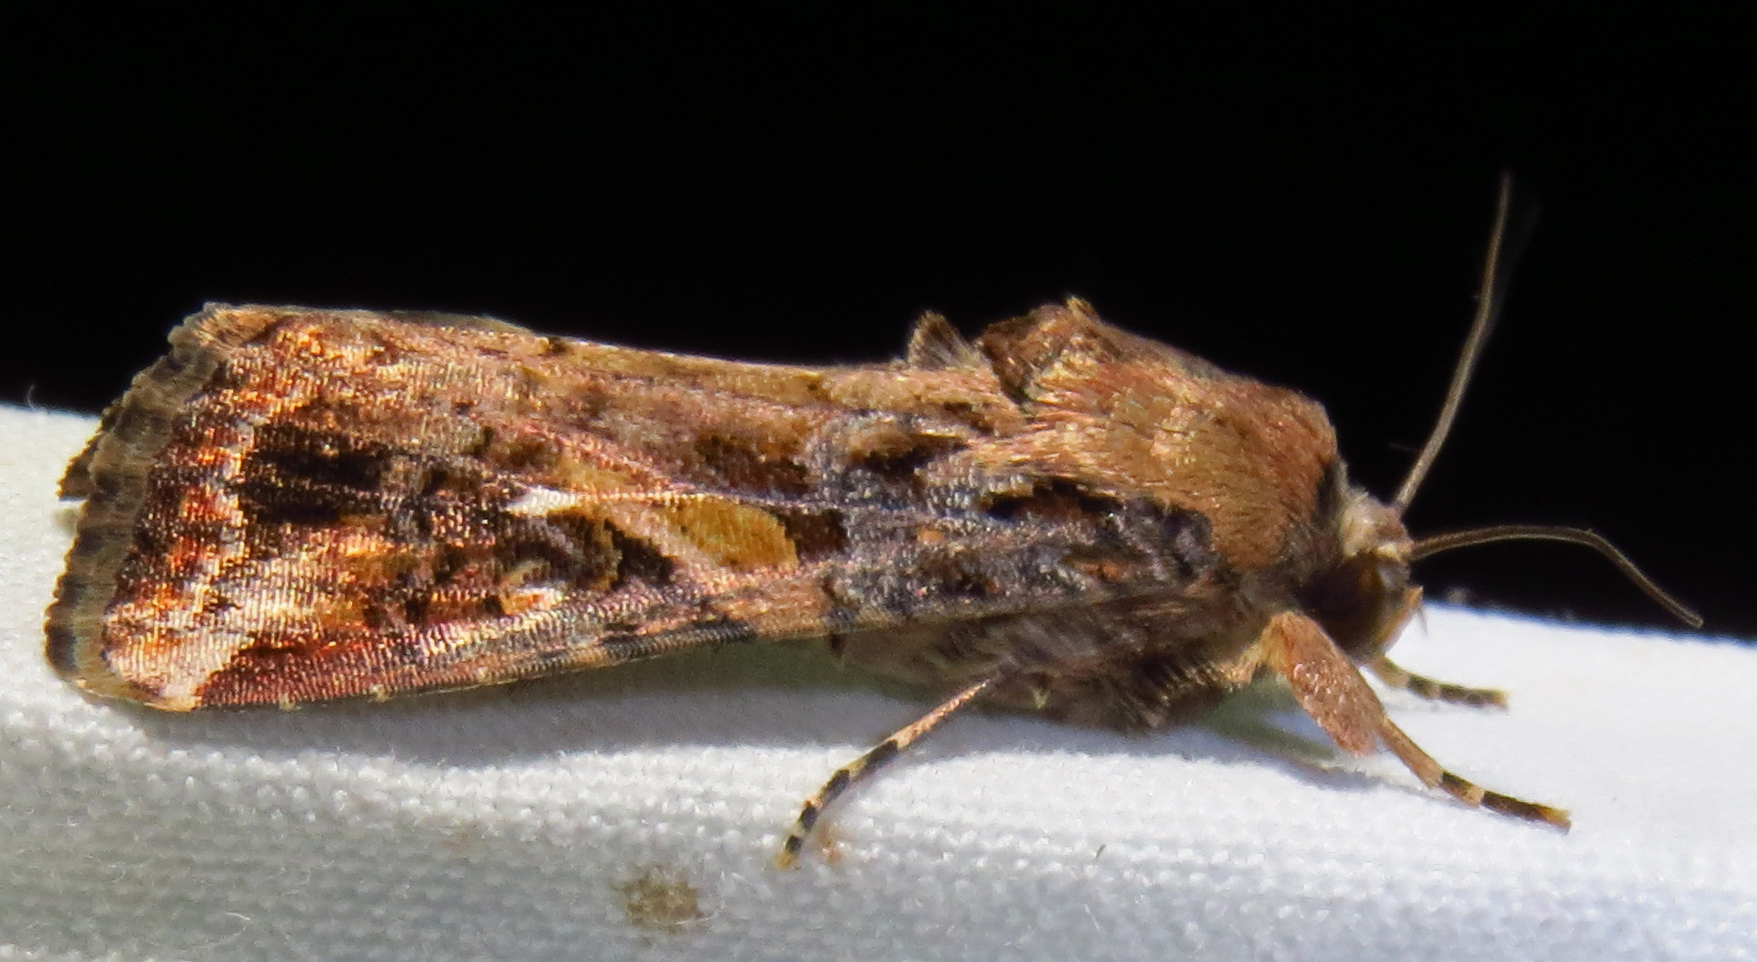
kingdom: Animalia
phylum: Arthropoda
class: Insecta
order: Lepidoptera
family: Noctuidae
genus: Spodoptera
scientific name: Spodoptera frugiperda
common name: Fall armyworm
